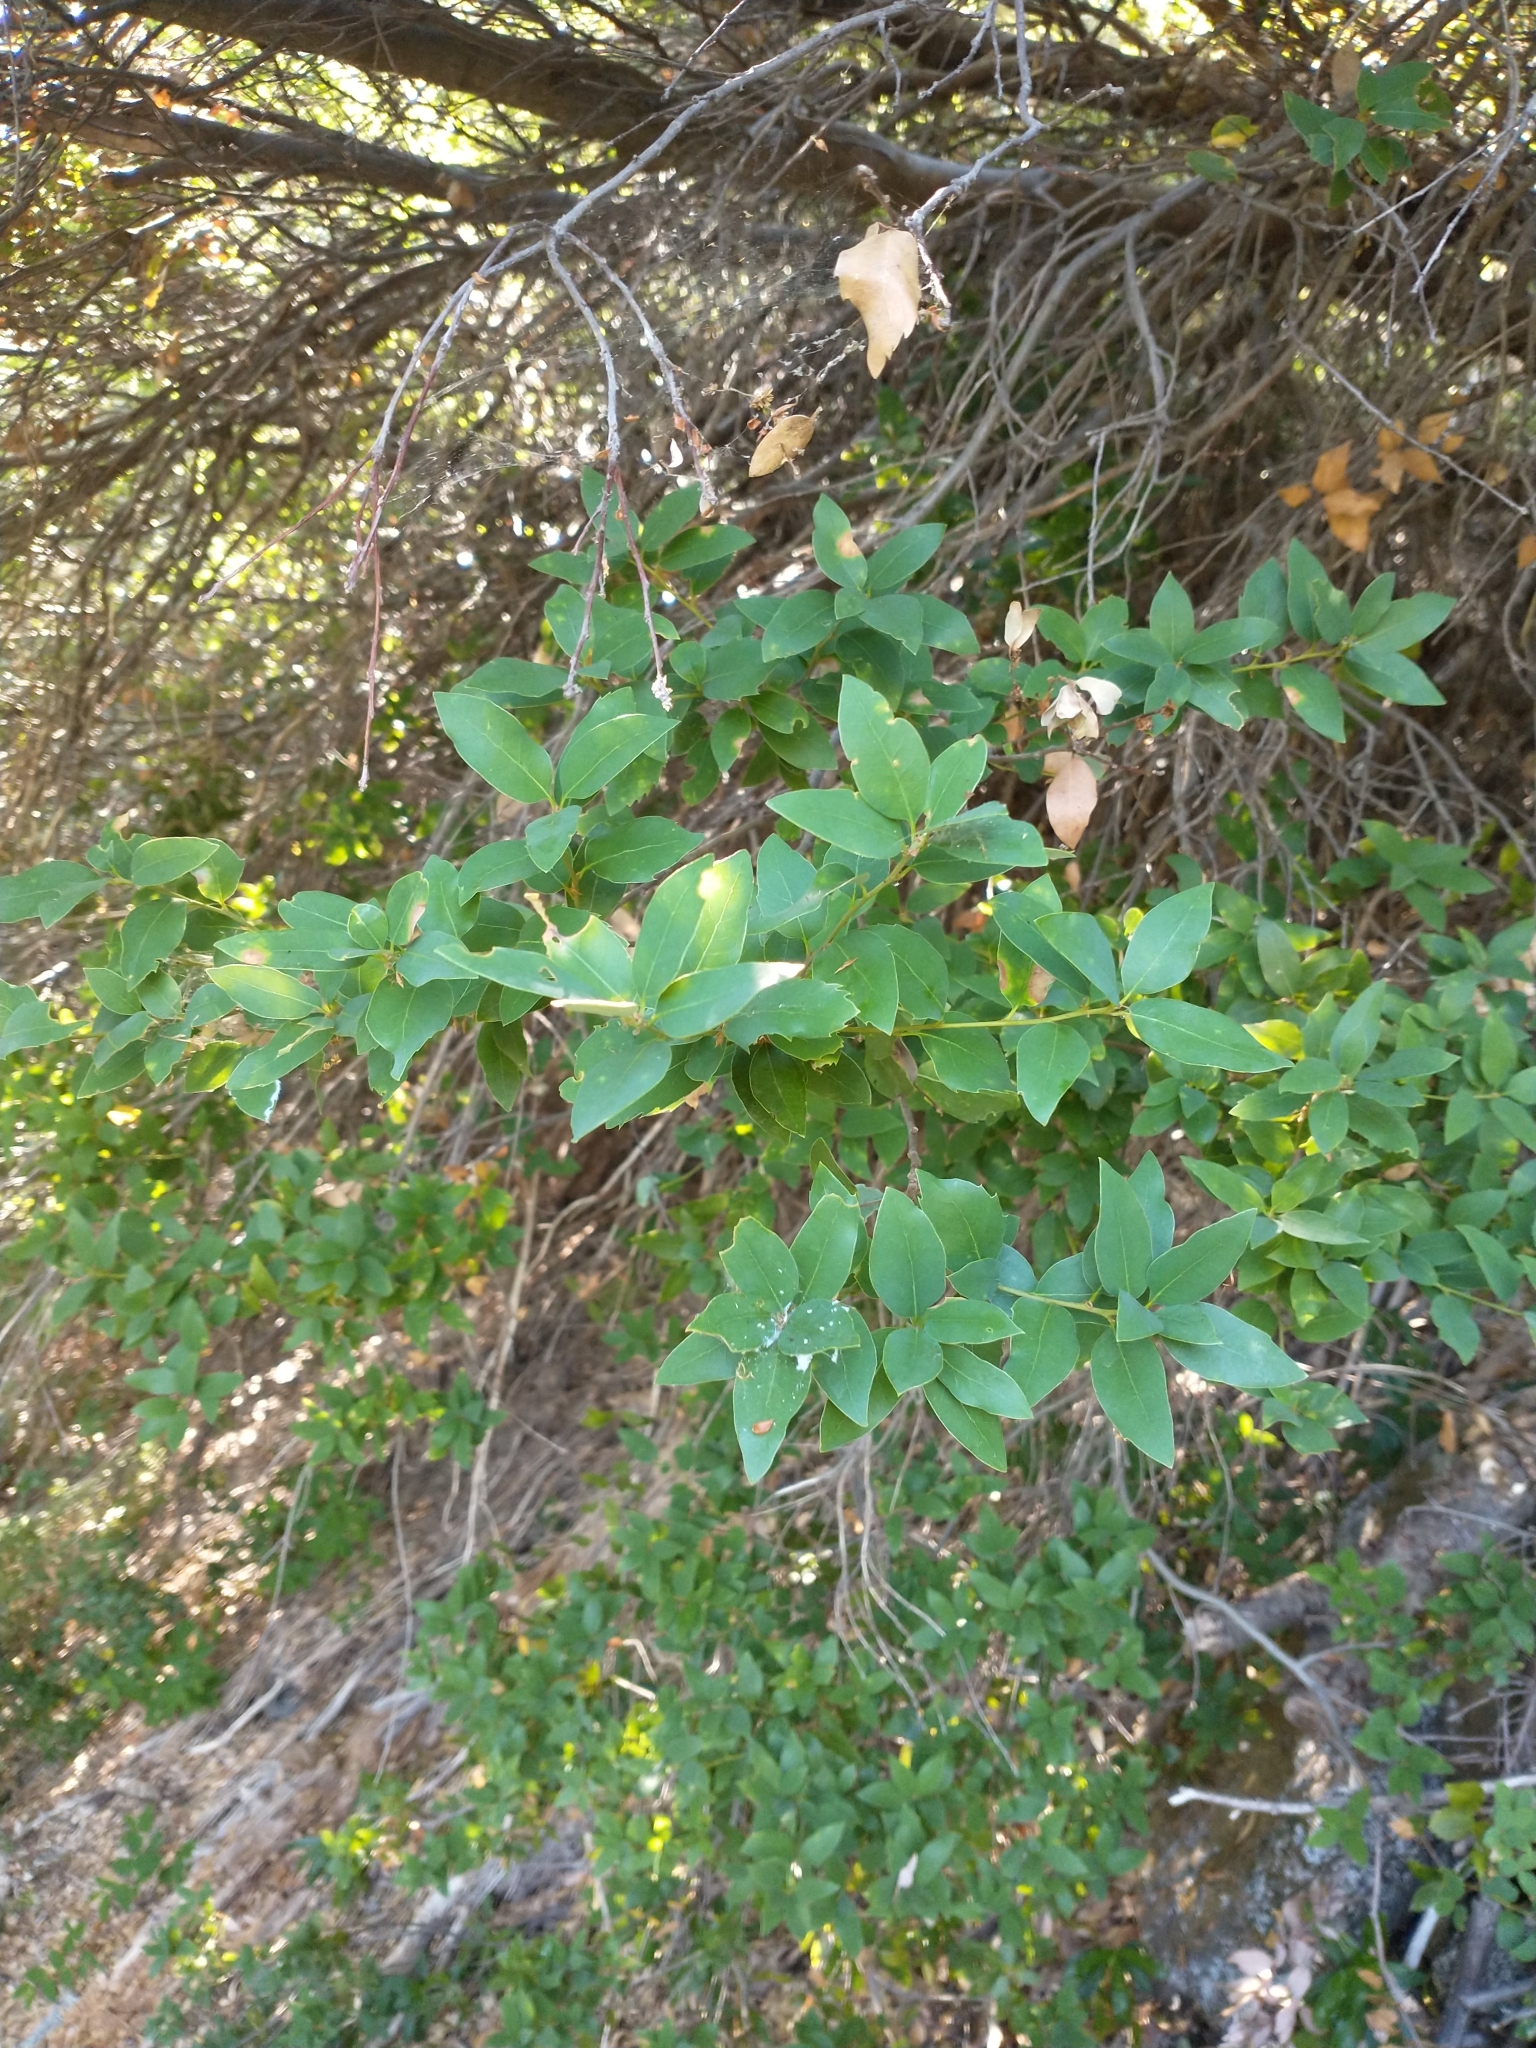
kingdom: Plantae
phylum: Tracheophyta
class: Magnoliopsida
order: Fagales
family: Fagaceae
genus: Quercus
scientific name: Quercus chrysolepis
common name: Canyon live oak
